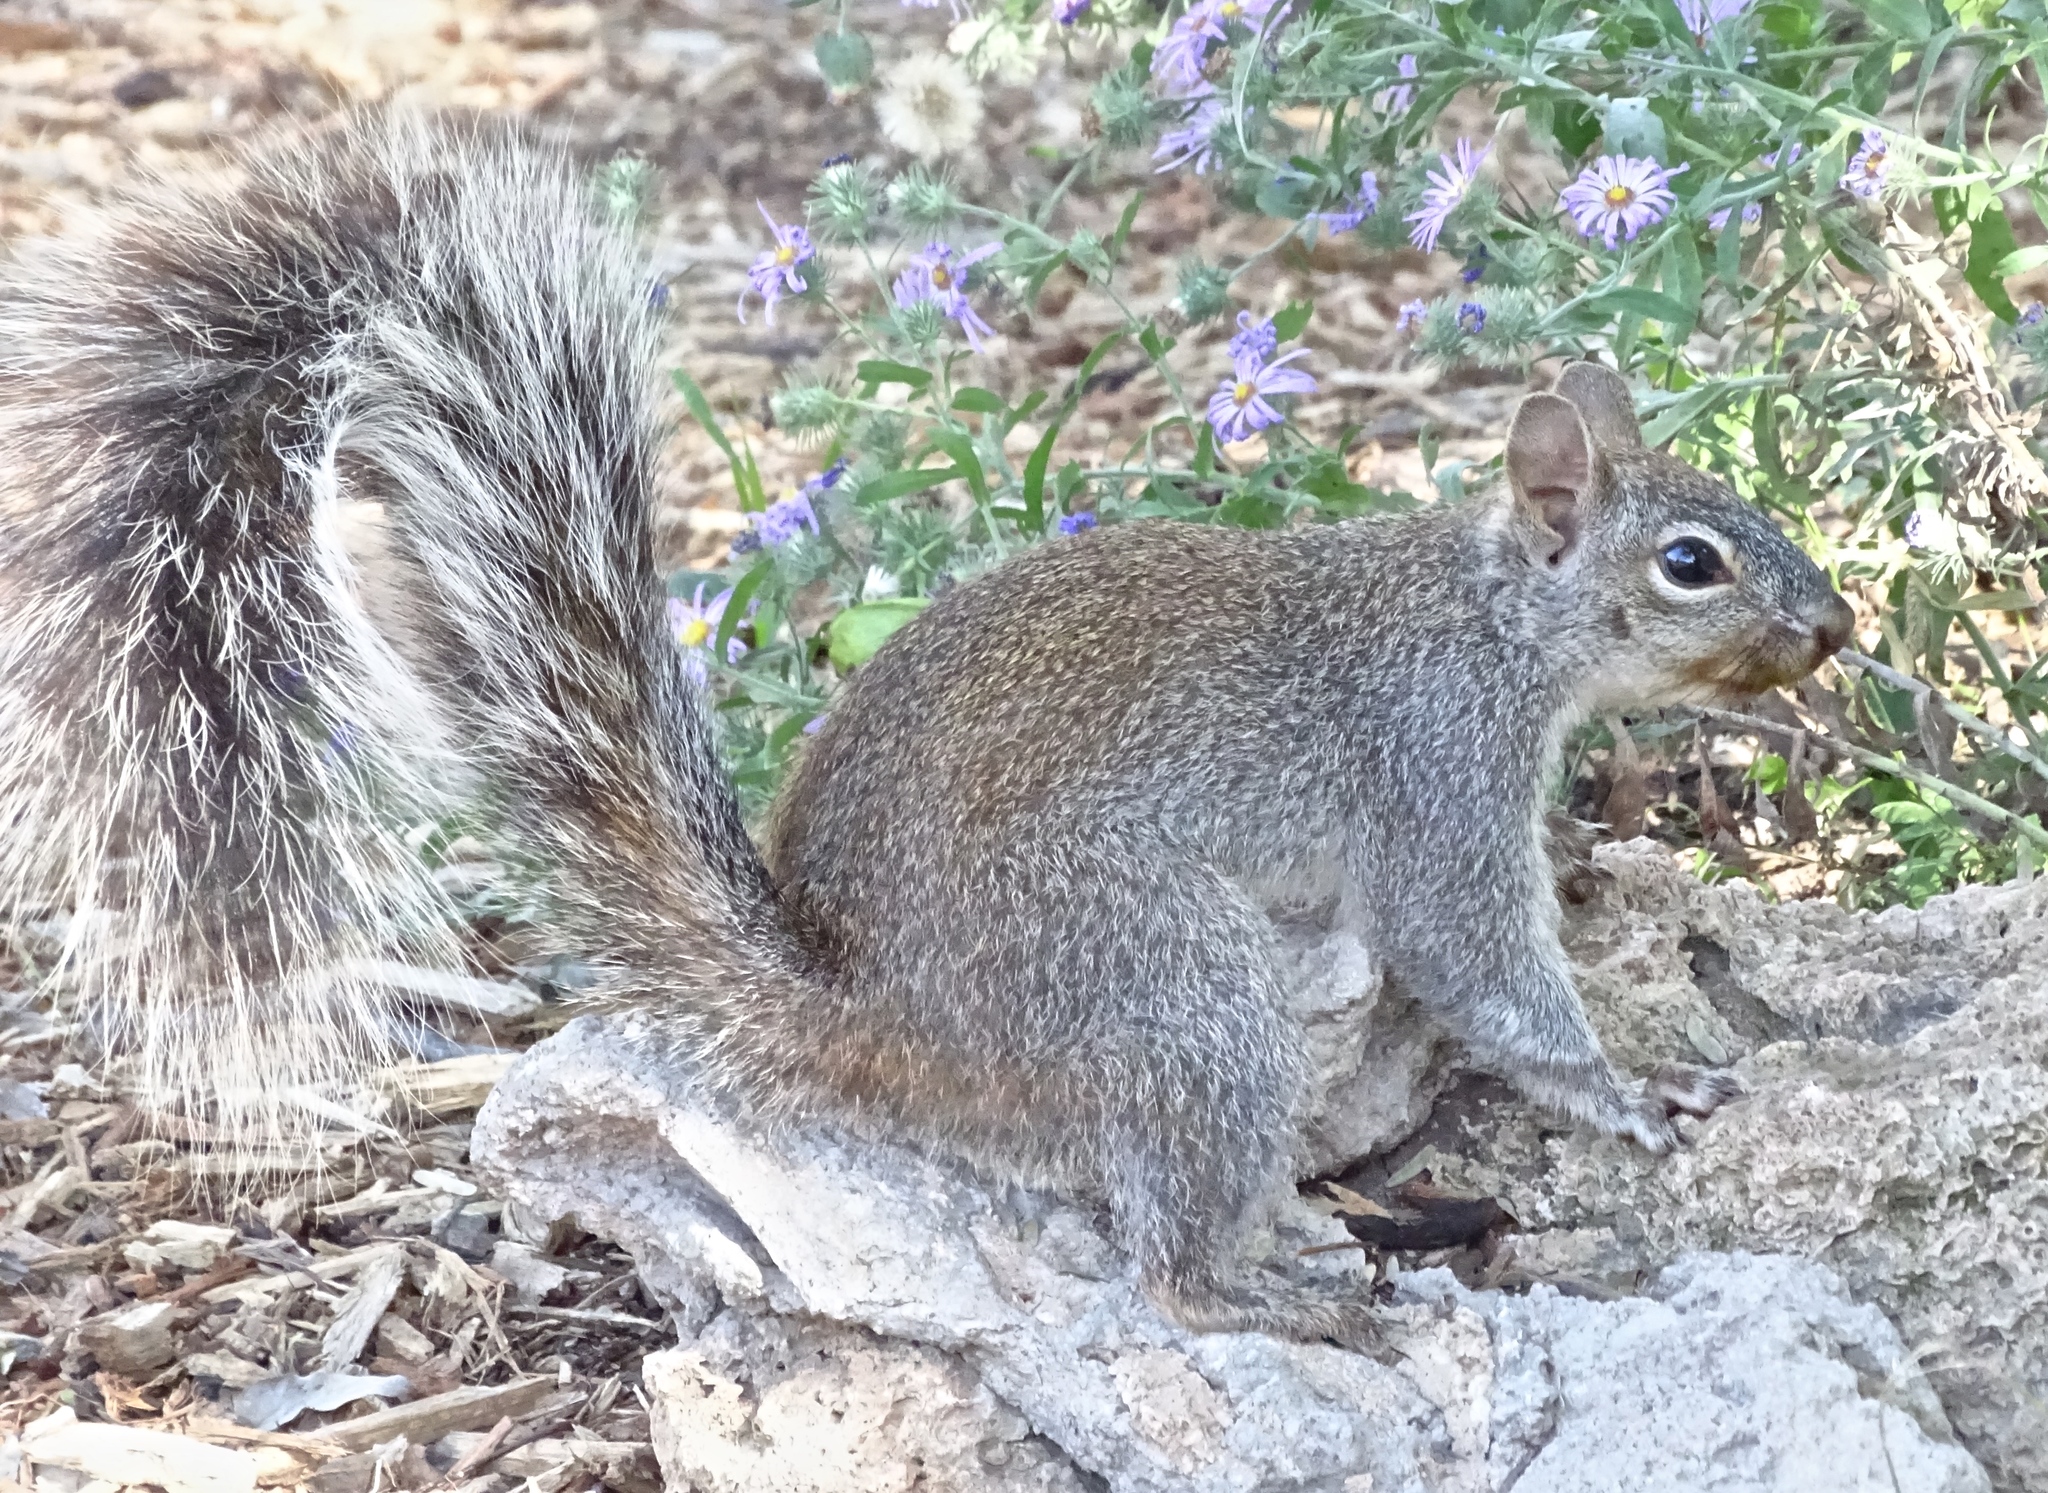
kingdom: Animalia
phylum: Chordata
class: Mammalia
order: Rodentia
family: Sciuridae
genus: Sciurus
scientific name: Sciurus arizonensis
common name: Arizona gray squirrel
